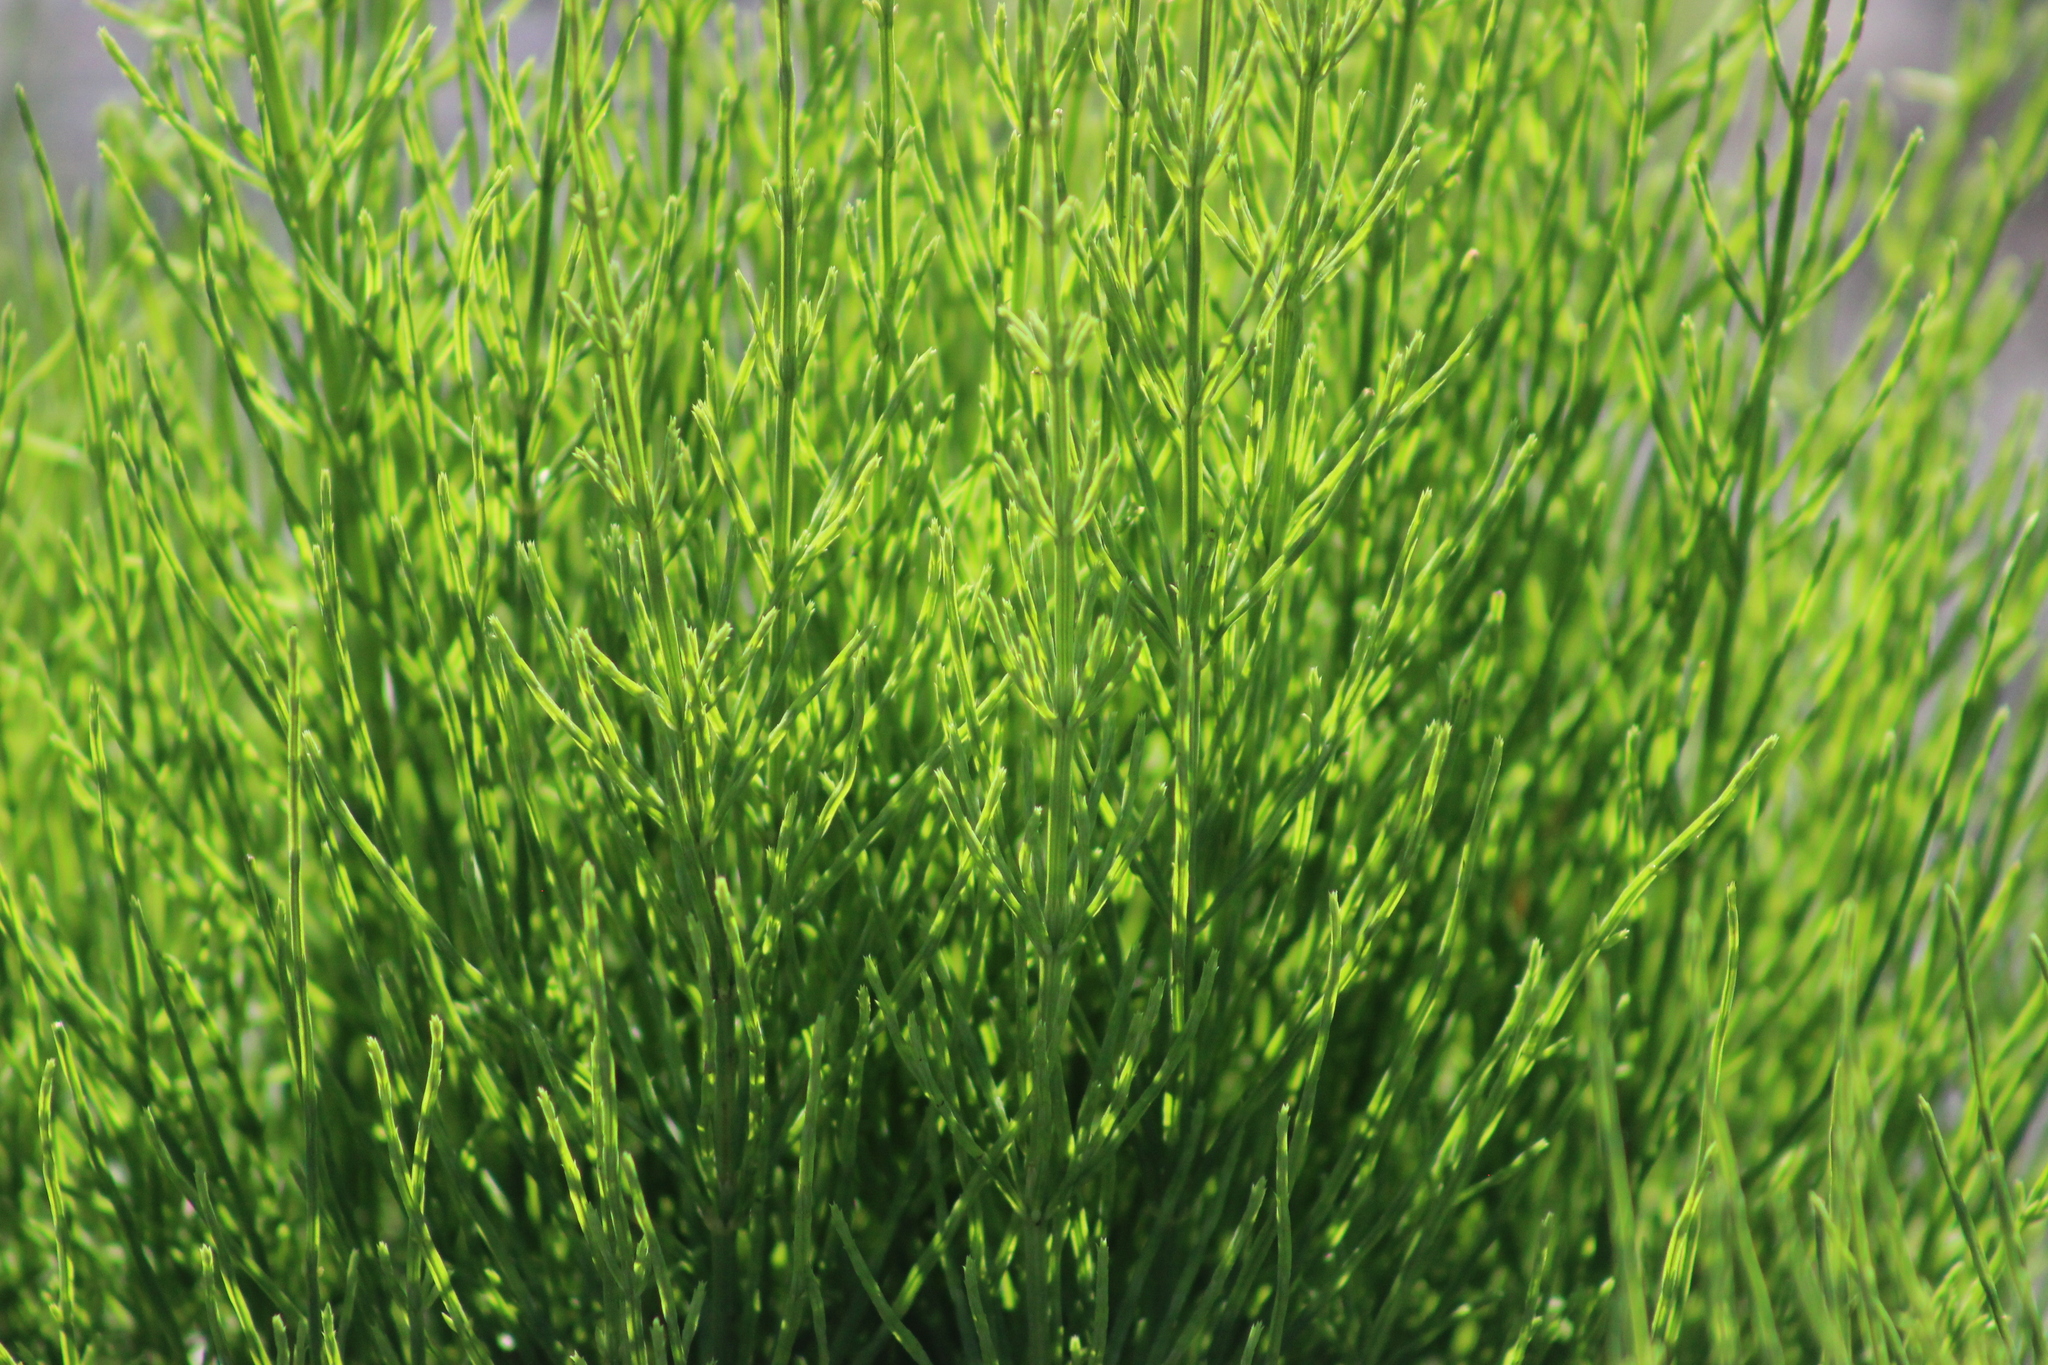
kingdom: Plantae
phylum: Tracheophyta
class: Polypodiopsida
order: Equisetales
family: Equisetaceae
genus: Equisetum
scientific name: Equisetum arvense
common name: Field horsetail
